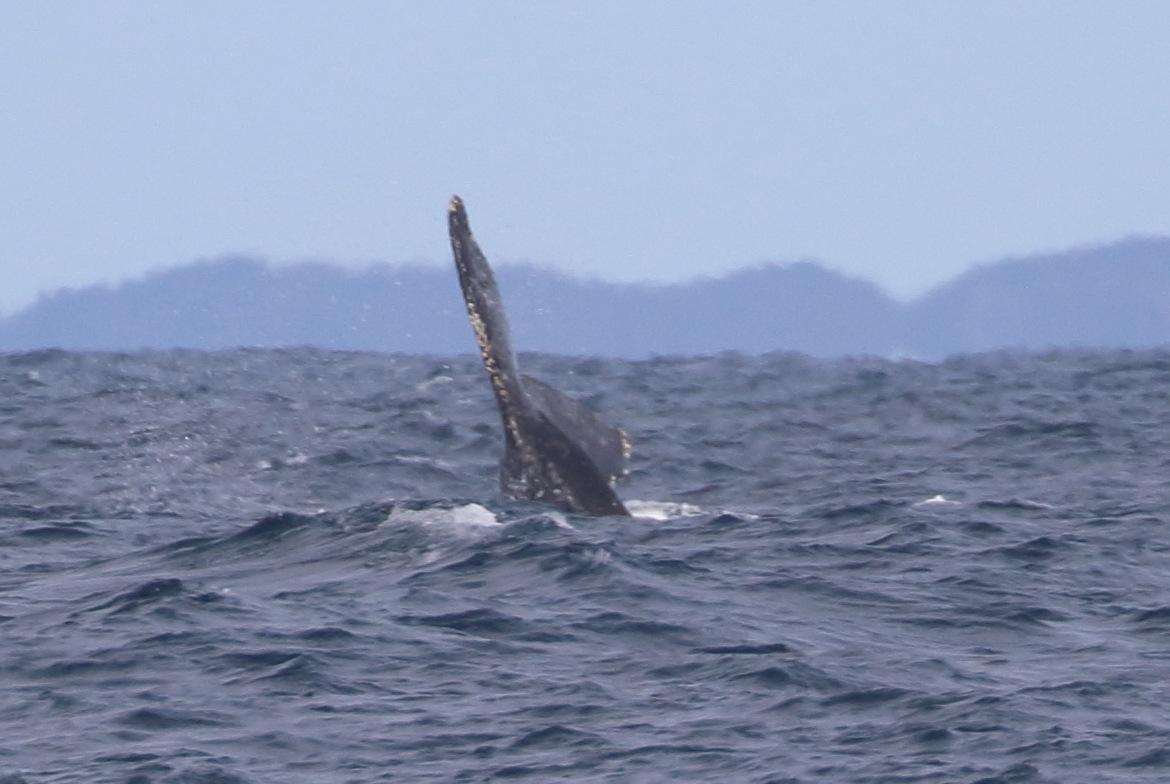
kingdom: Animalia
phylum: Chordata
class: Mammalia
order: Cetacea
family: Balaenopteridae
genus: Megaptera
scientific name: Megaptera novaeangliae
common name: Humpback whale
